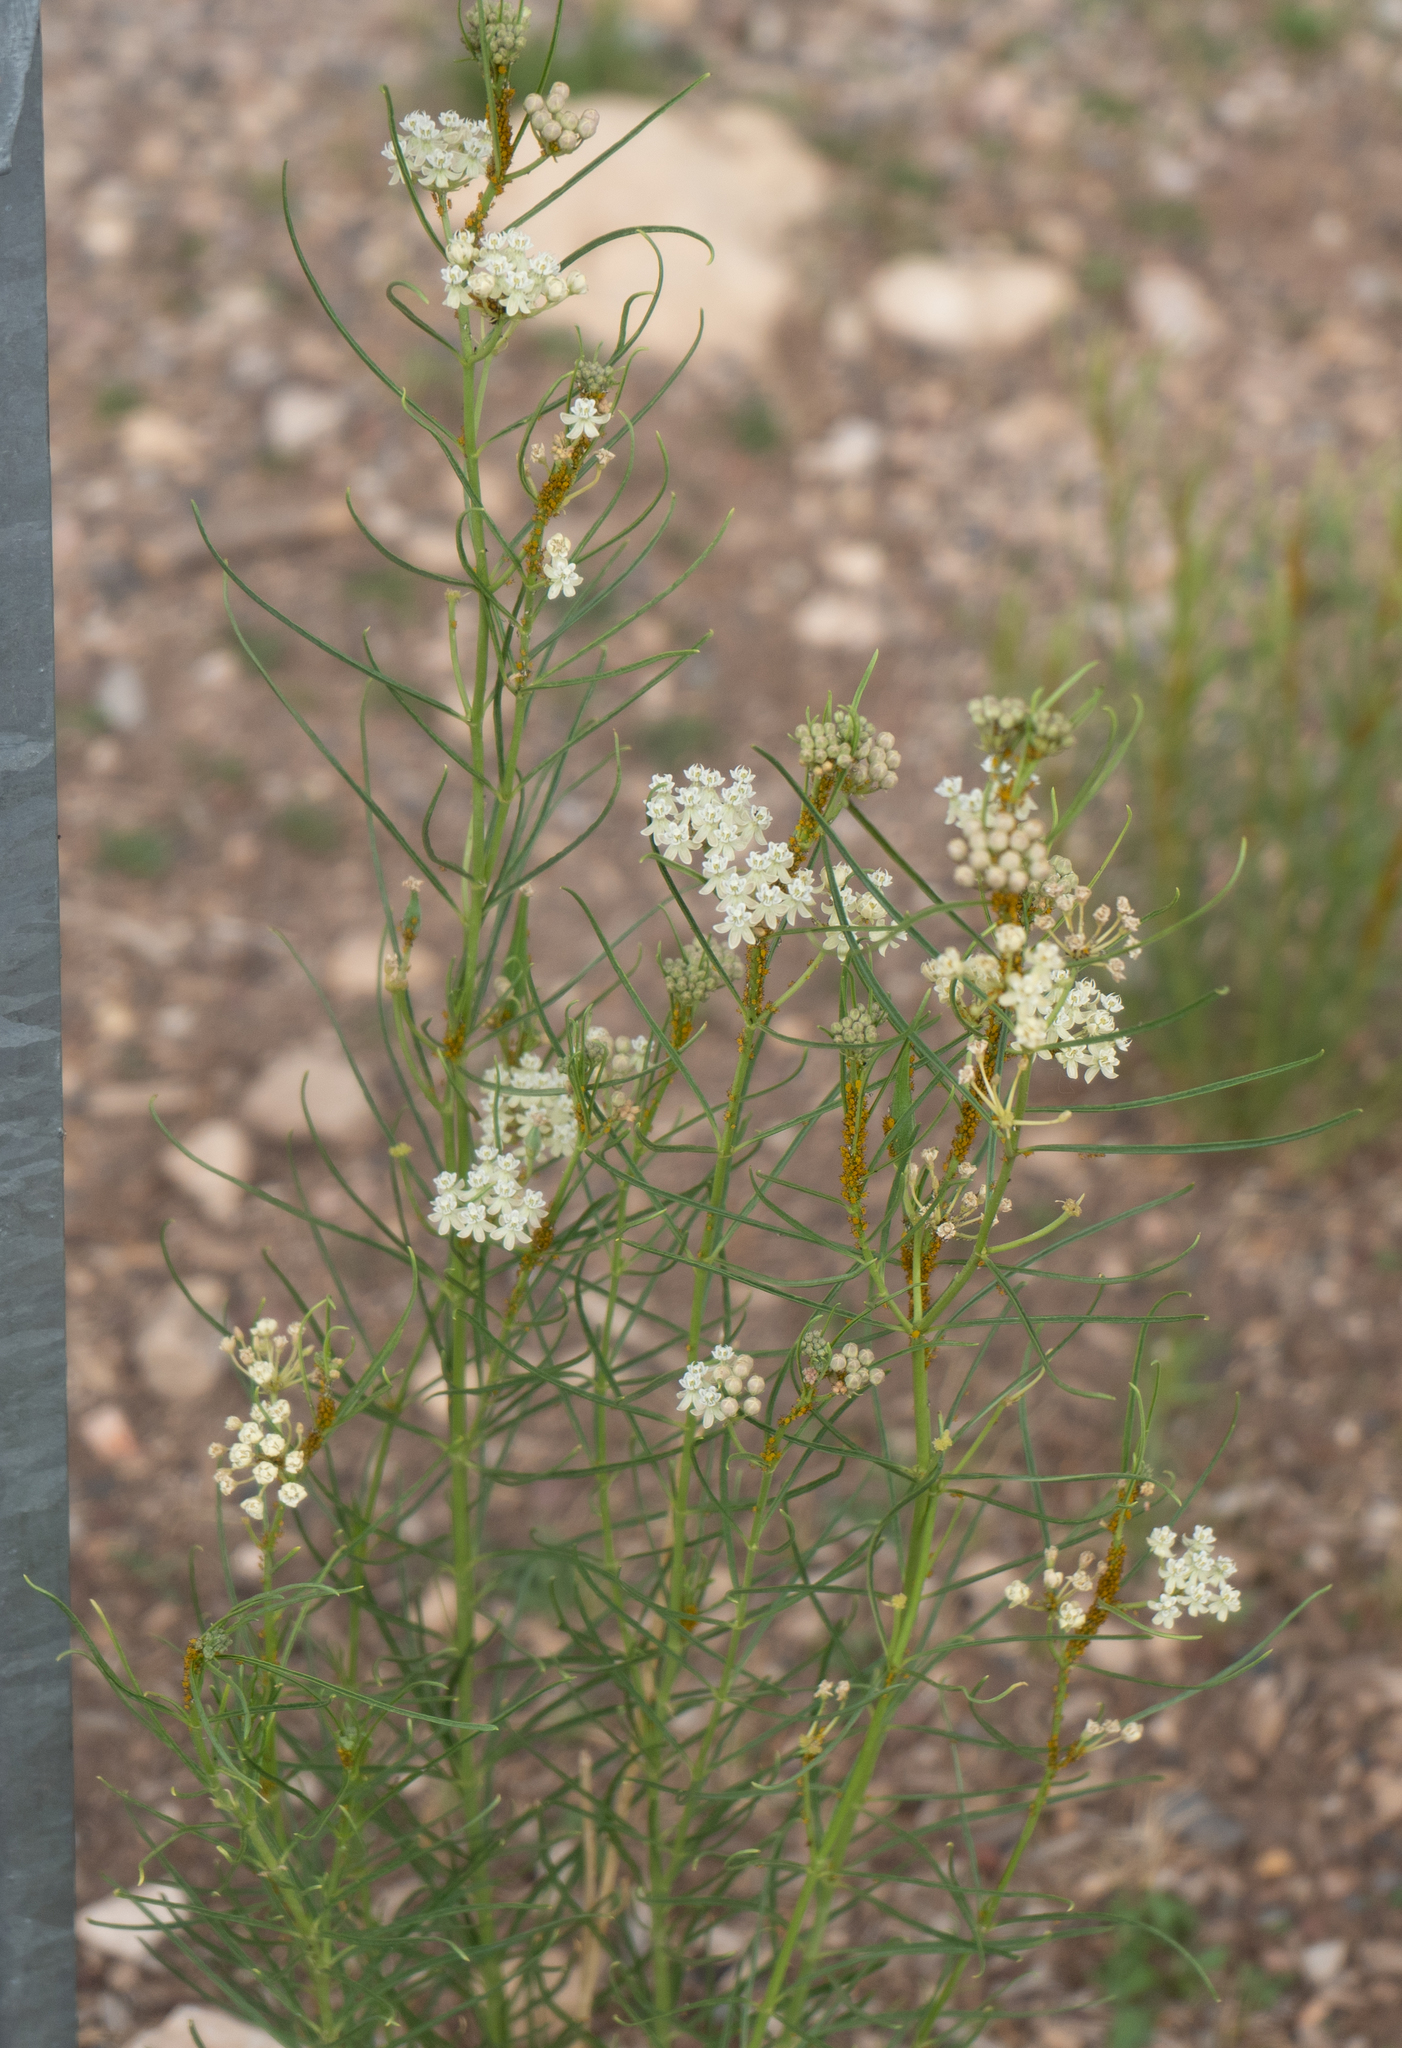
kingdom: Plantae
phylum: Tracheophyta
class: Magnoliopsida
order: Gentianales
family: Apocynaceae
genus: Asclepias
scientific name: Asclepias subverticillata
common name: Horsetail milkweed
